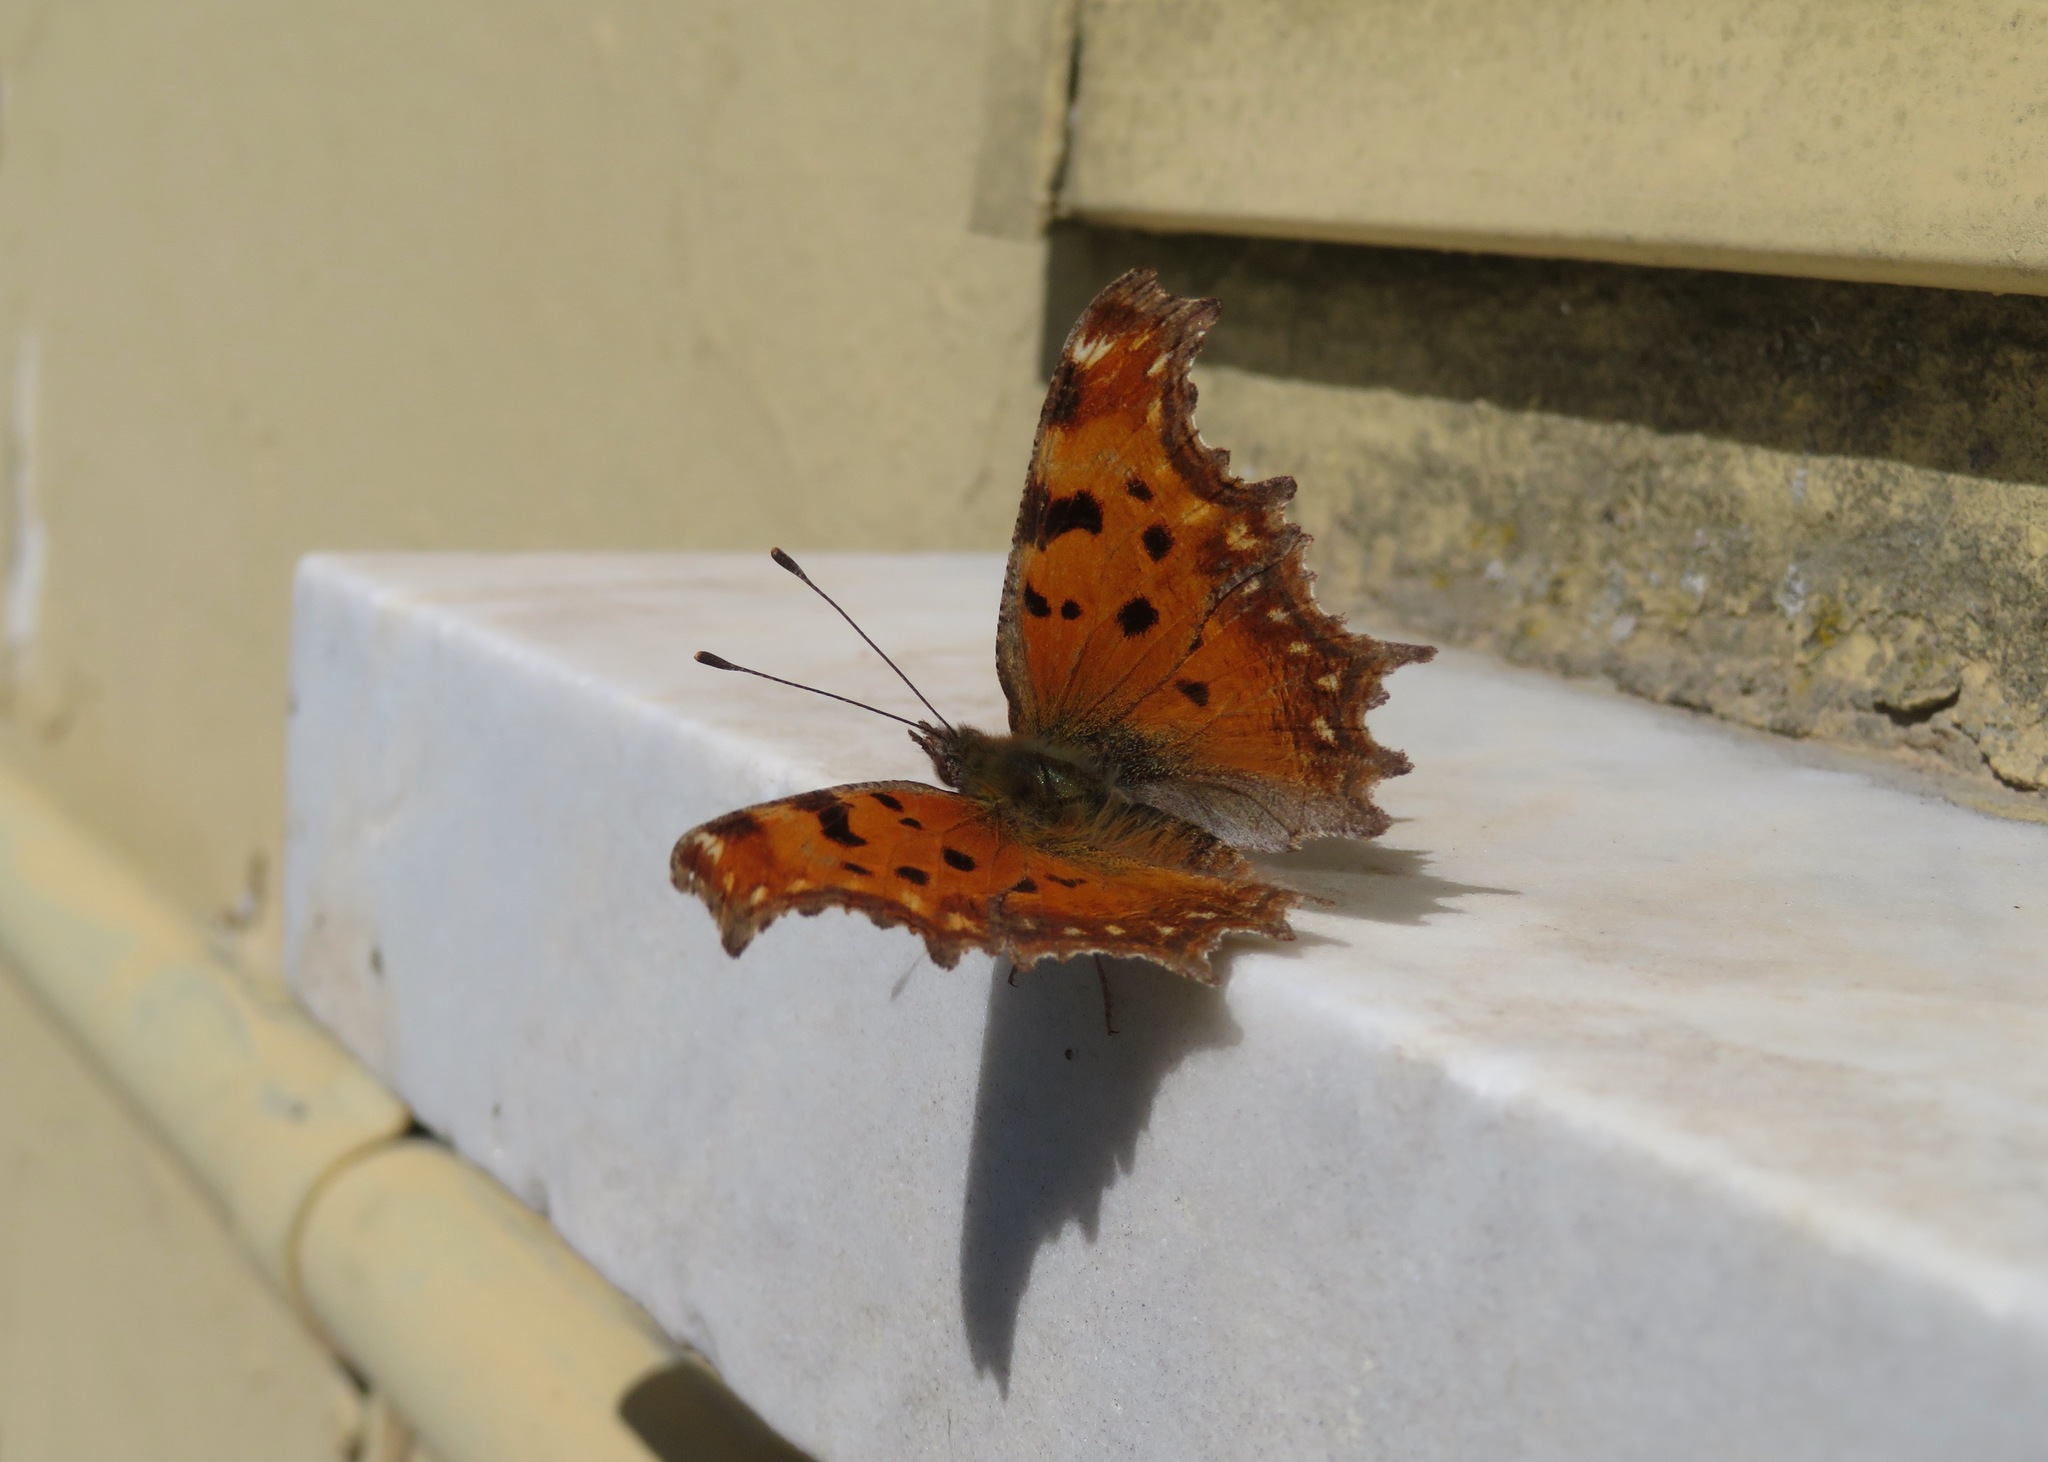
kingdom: Animalia
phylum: Arthropoda
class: Insecta
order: Lepidoptera
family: Nymphalidae
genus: Polygonia
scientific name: Polygonia egea
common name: Southern comma
